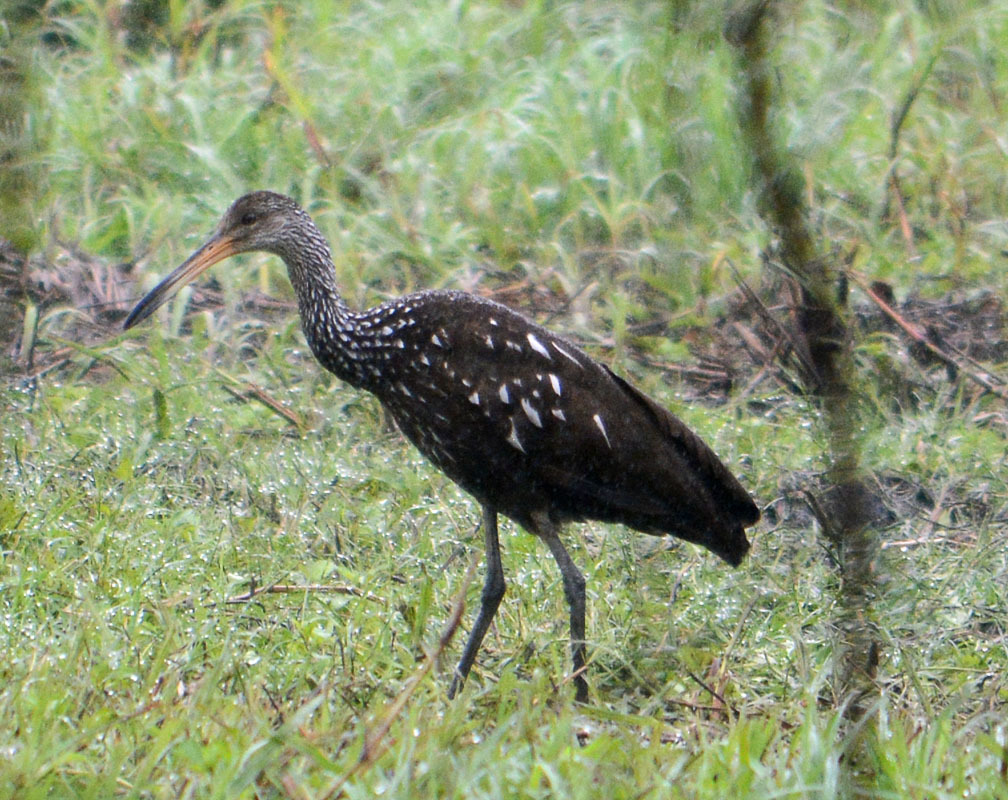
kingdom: Animalia
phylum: Chordata
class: Aves
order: Gruiformes
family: Aramidae
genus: Aramus
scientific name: Aramus guarauna
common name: Limpkin
